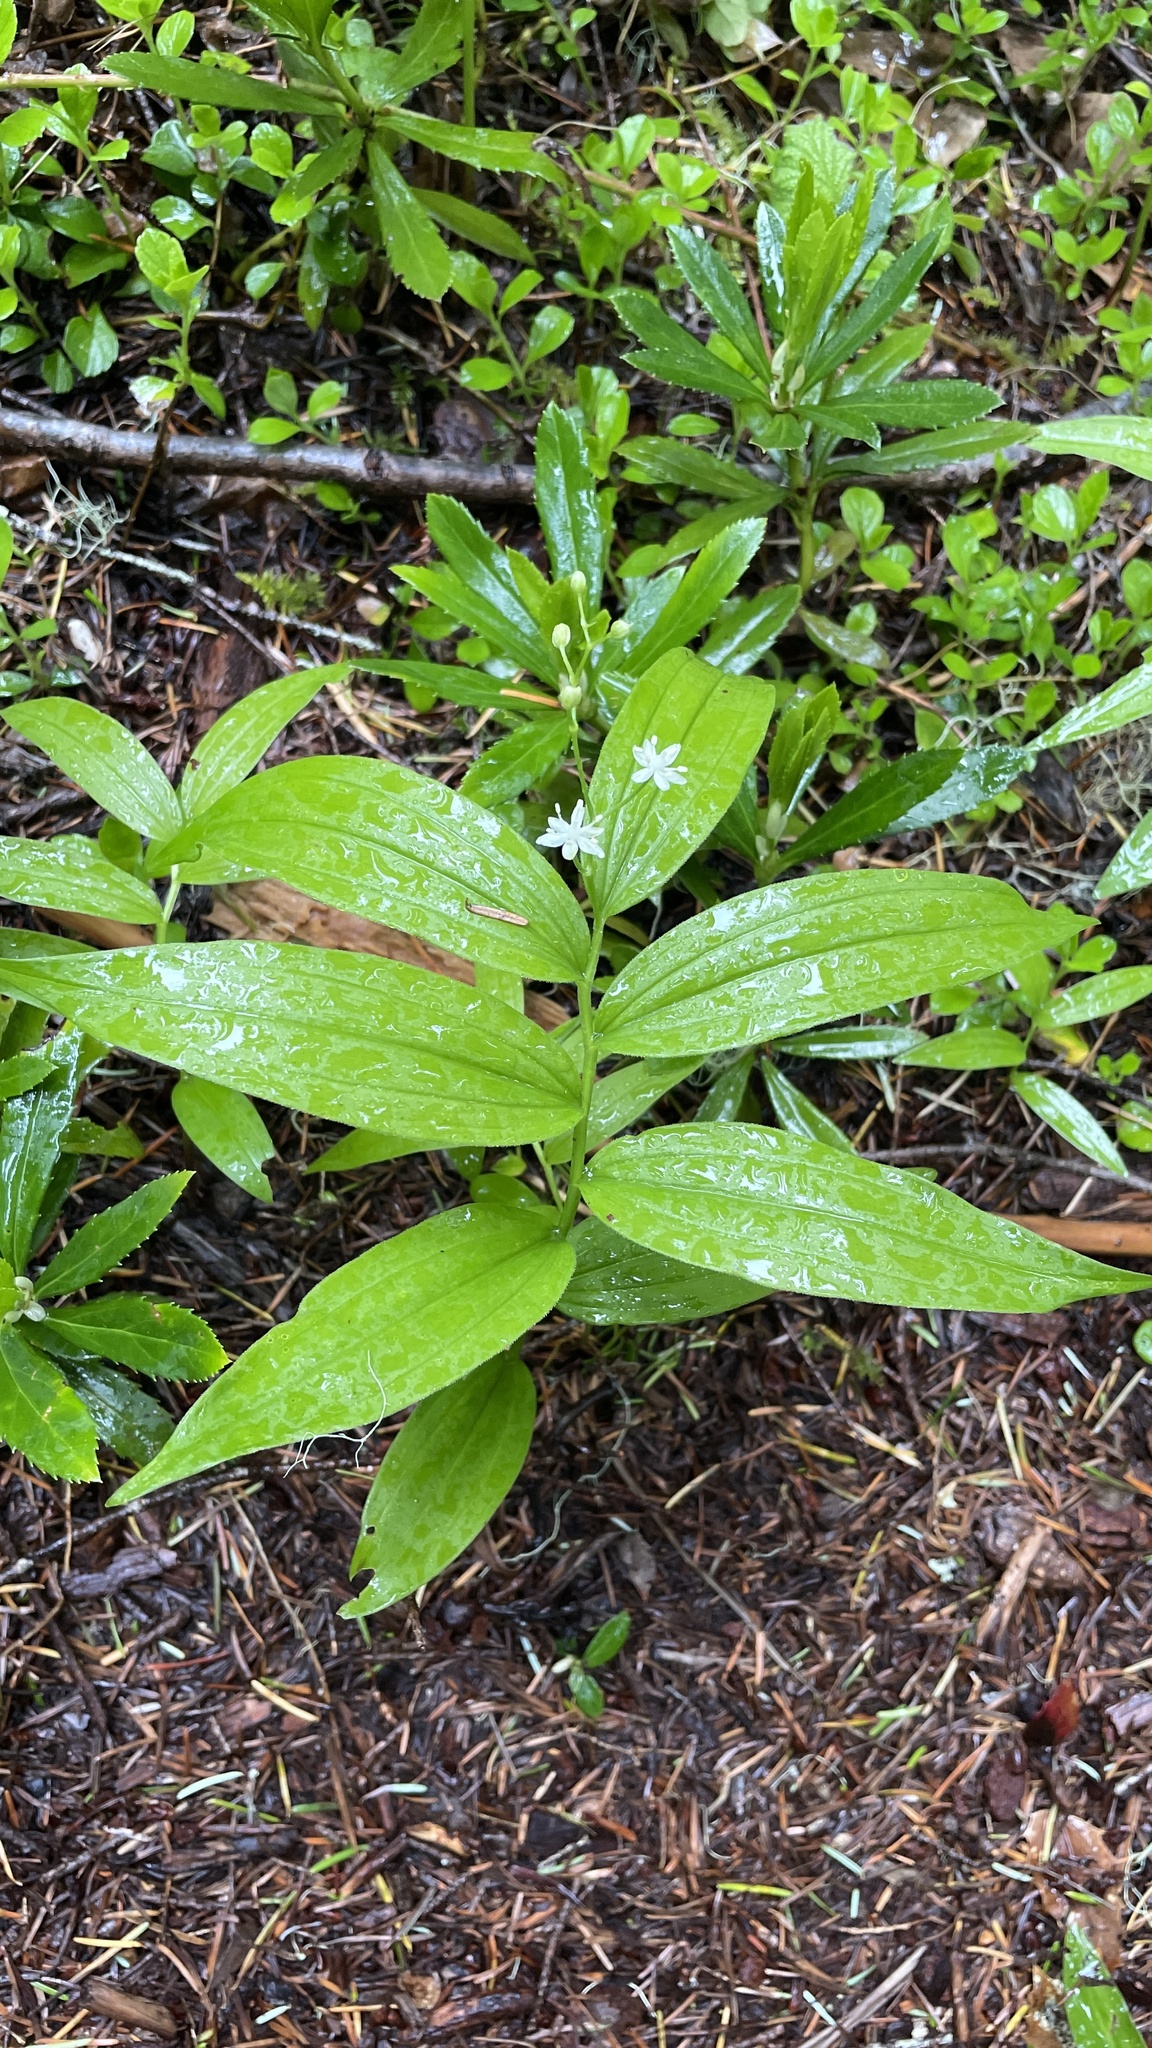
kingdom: Plantae
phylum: Tracheophyta
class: Liliopsida
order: Asparagales
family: Asparagaceae
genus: Maianthemum
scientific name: Maianthemum stellatum
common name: Little false solomon's seal
